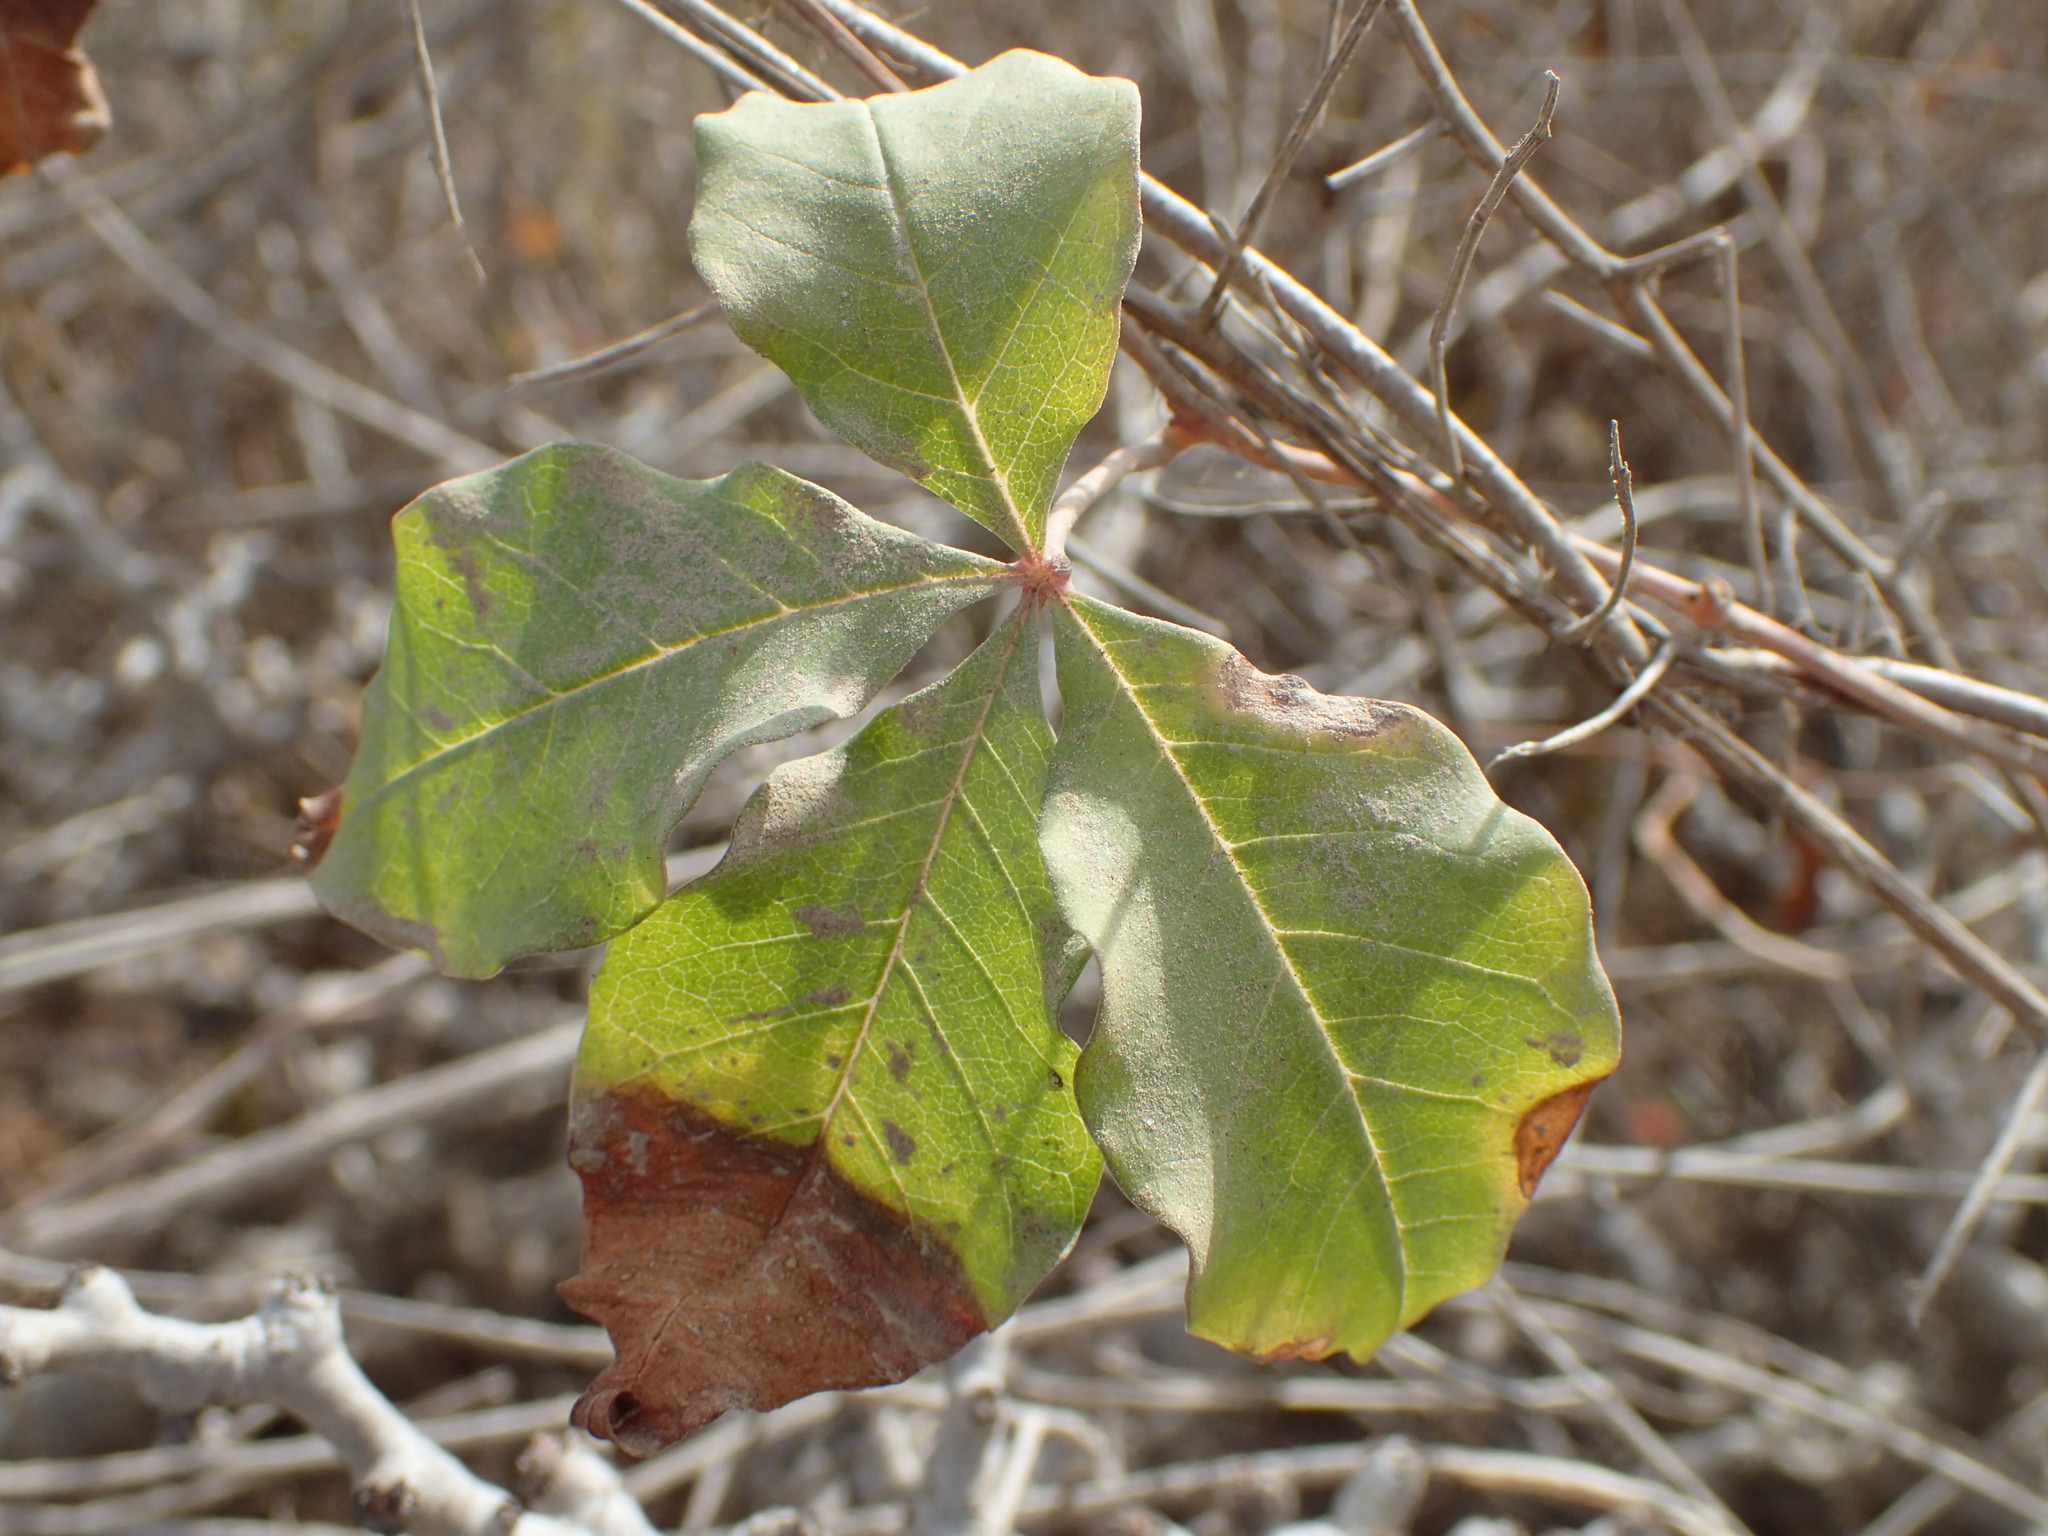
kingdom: Plantae
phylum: Tracheophyta
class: Magnoliopsida
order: Solanales
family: Convolvulaceae
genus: Distimake
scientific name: Distimake aureus
